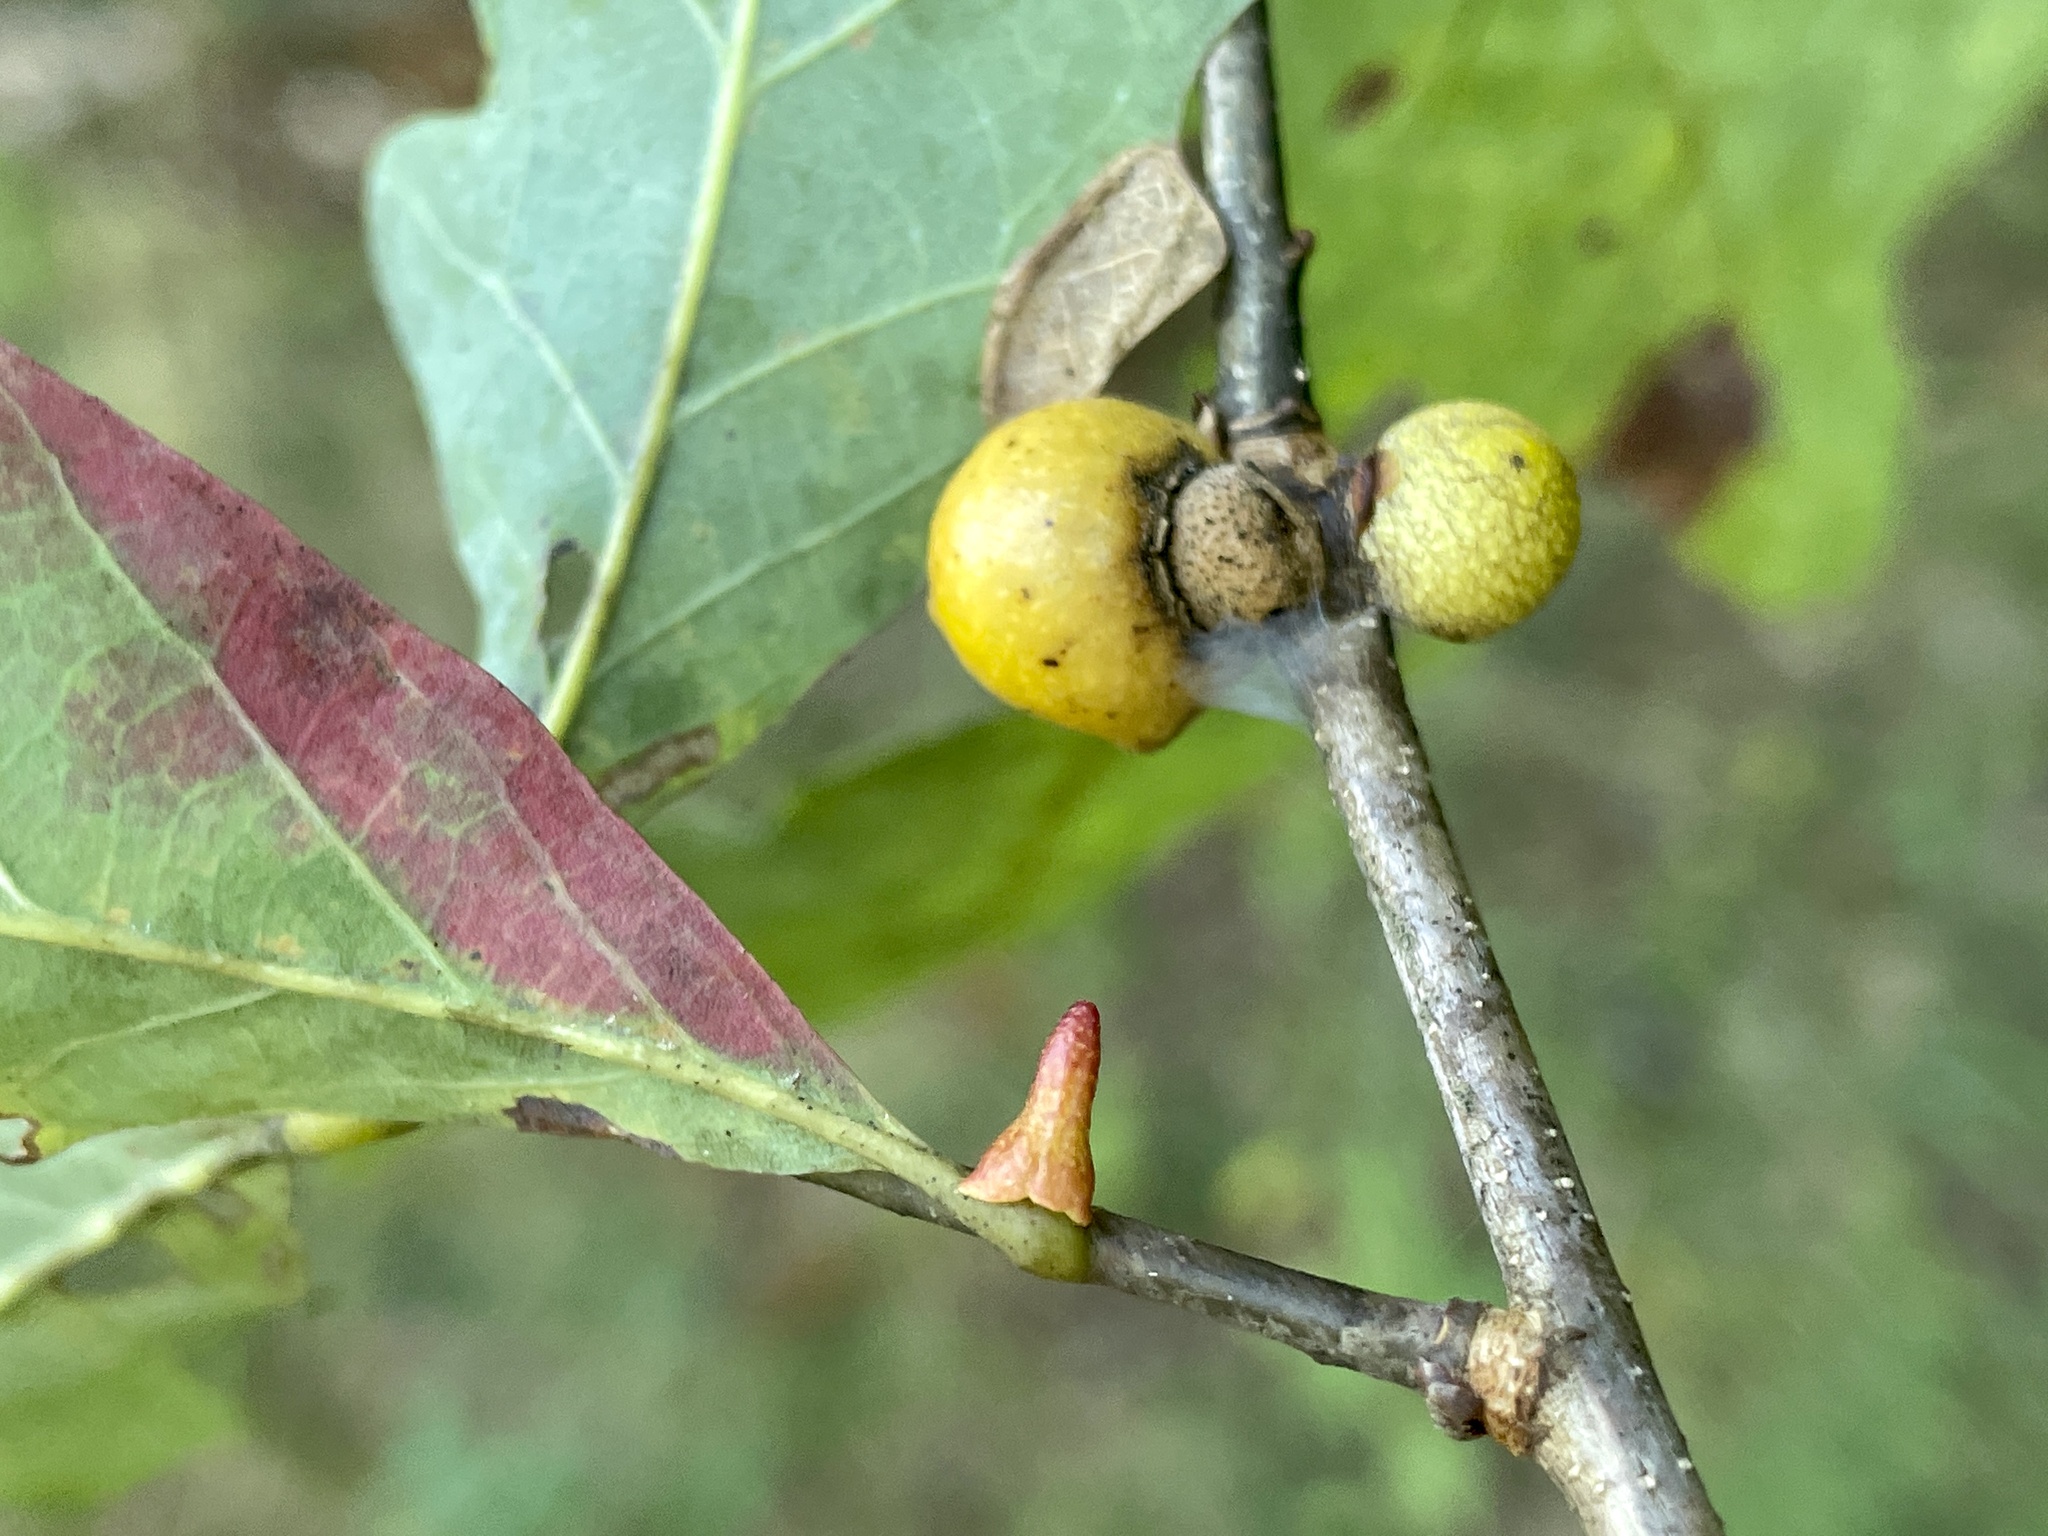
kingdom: Animalia
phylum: Arthropoda
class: Insecta
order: Hymenoptera
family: Cynipidae
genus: Zopheroteras
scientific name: Zopheroteras
